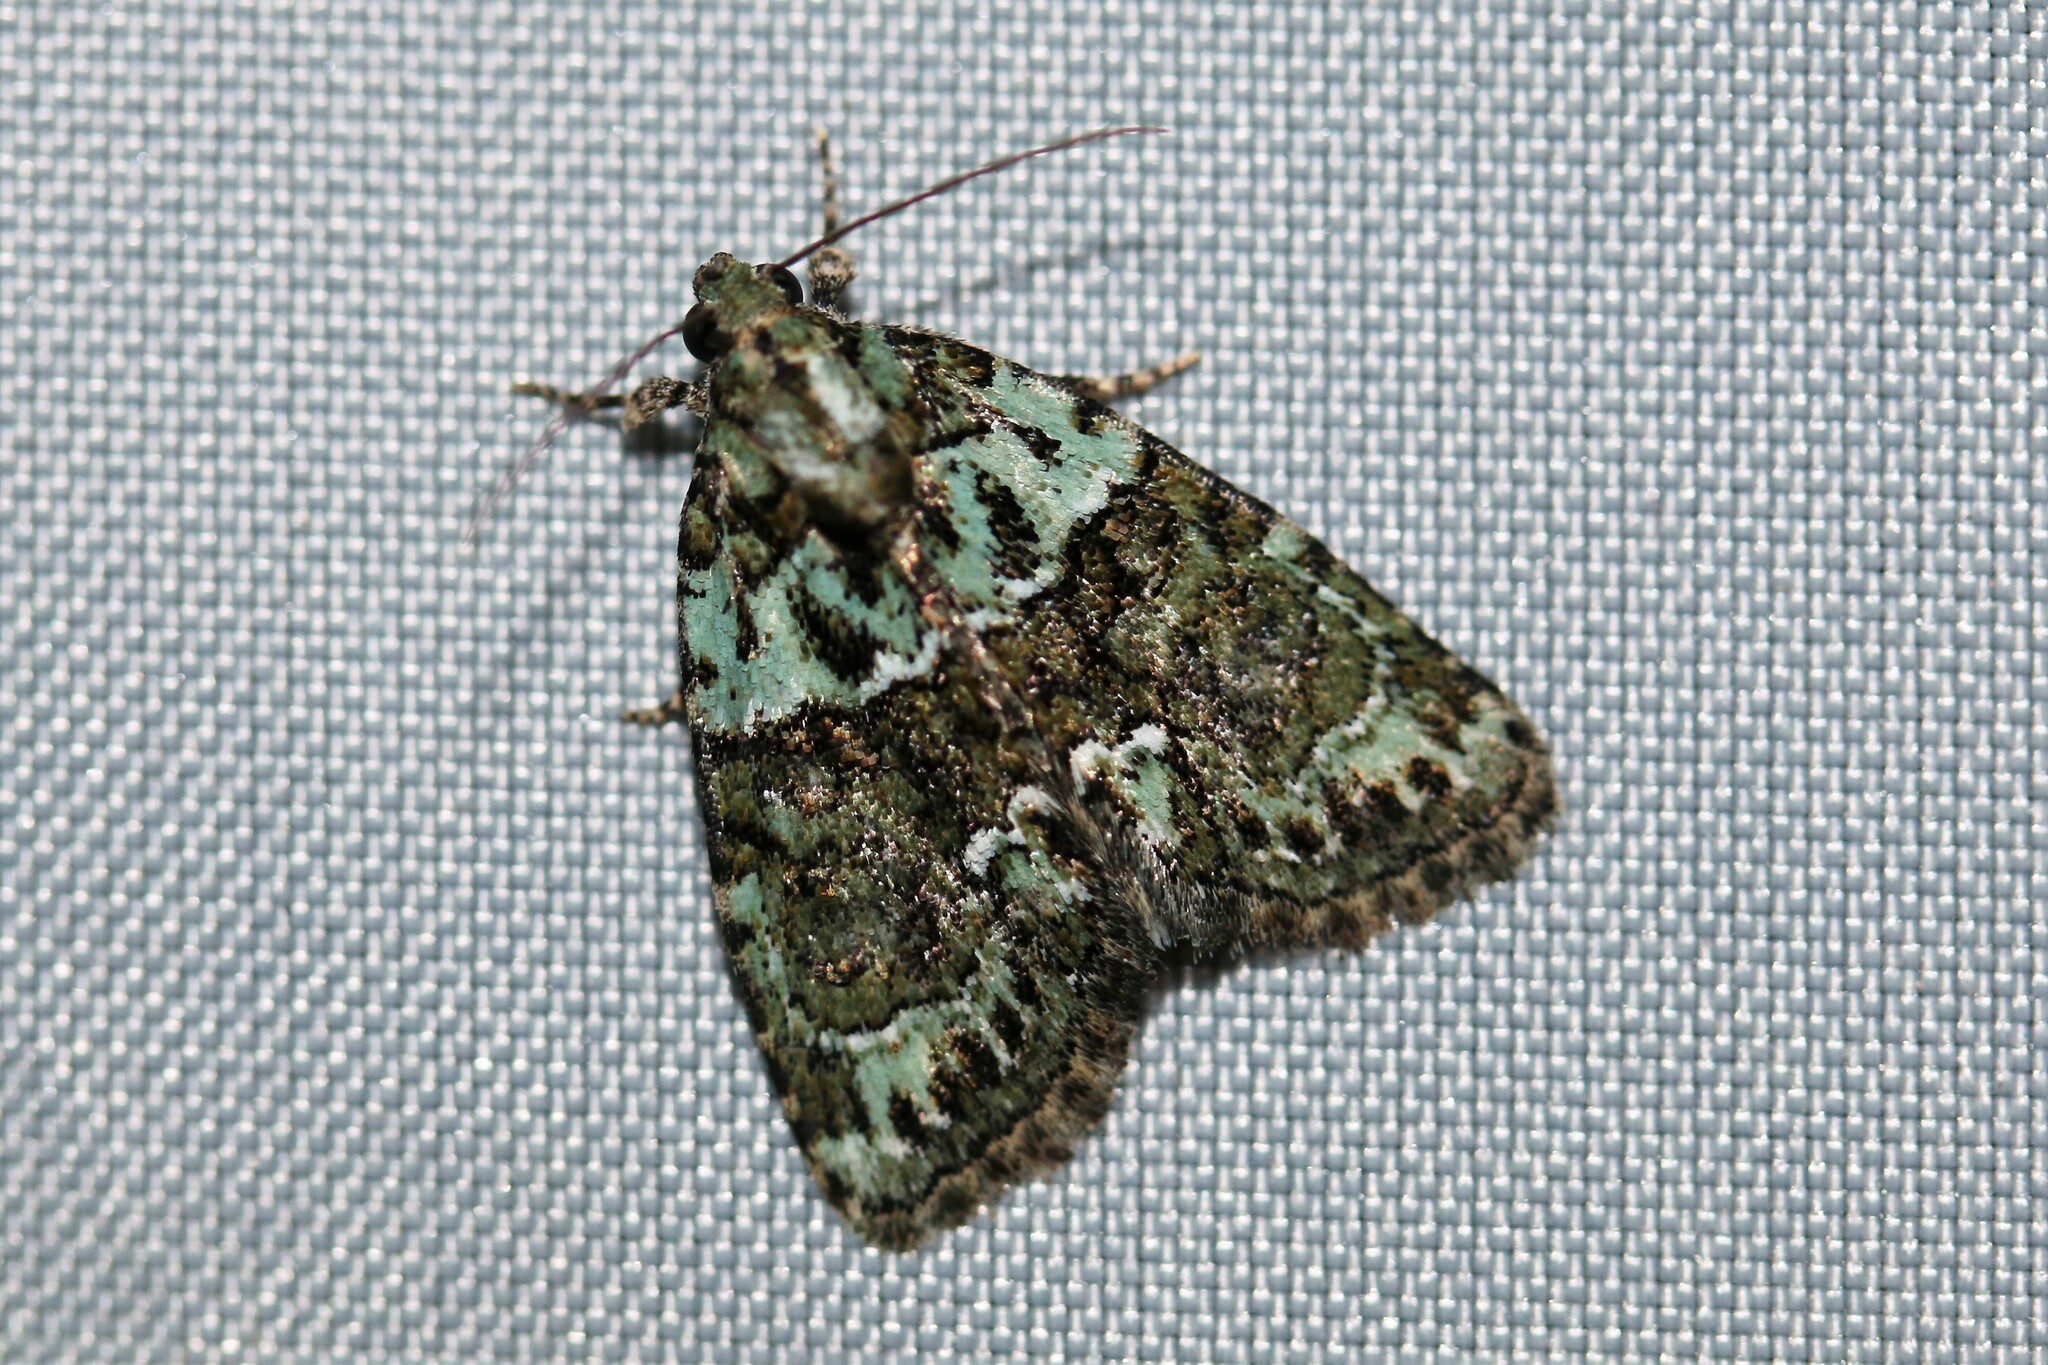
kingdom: Animalia
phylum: Arthropoda
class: Insecta
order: Lepidoptera
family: Noctuidae
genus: Cryphia
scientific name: Cryphia algae
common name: Tree-lichen beauty
